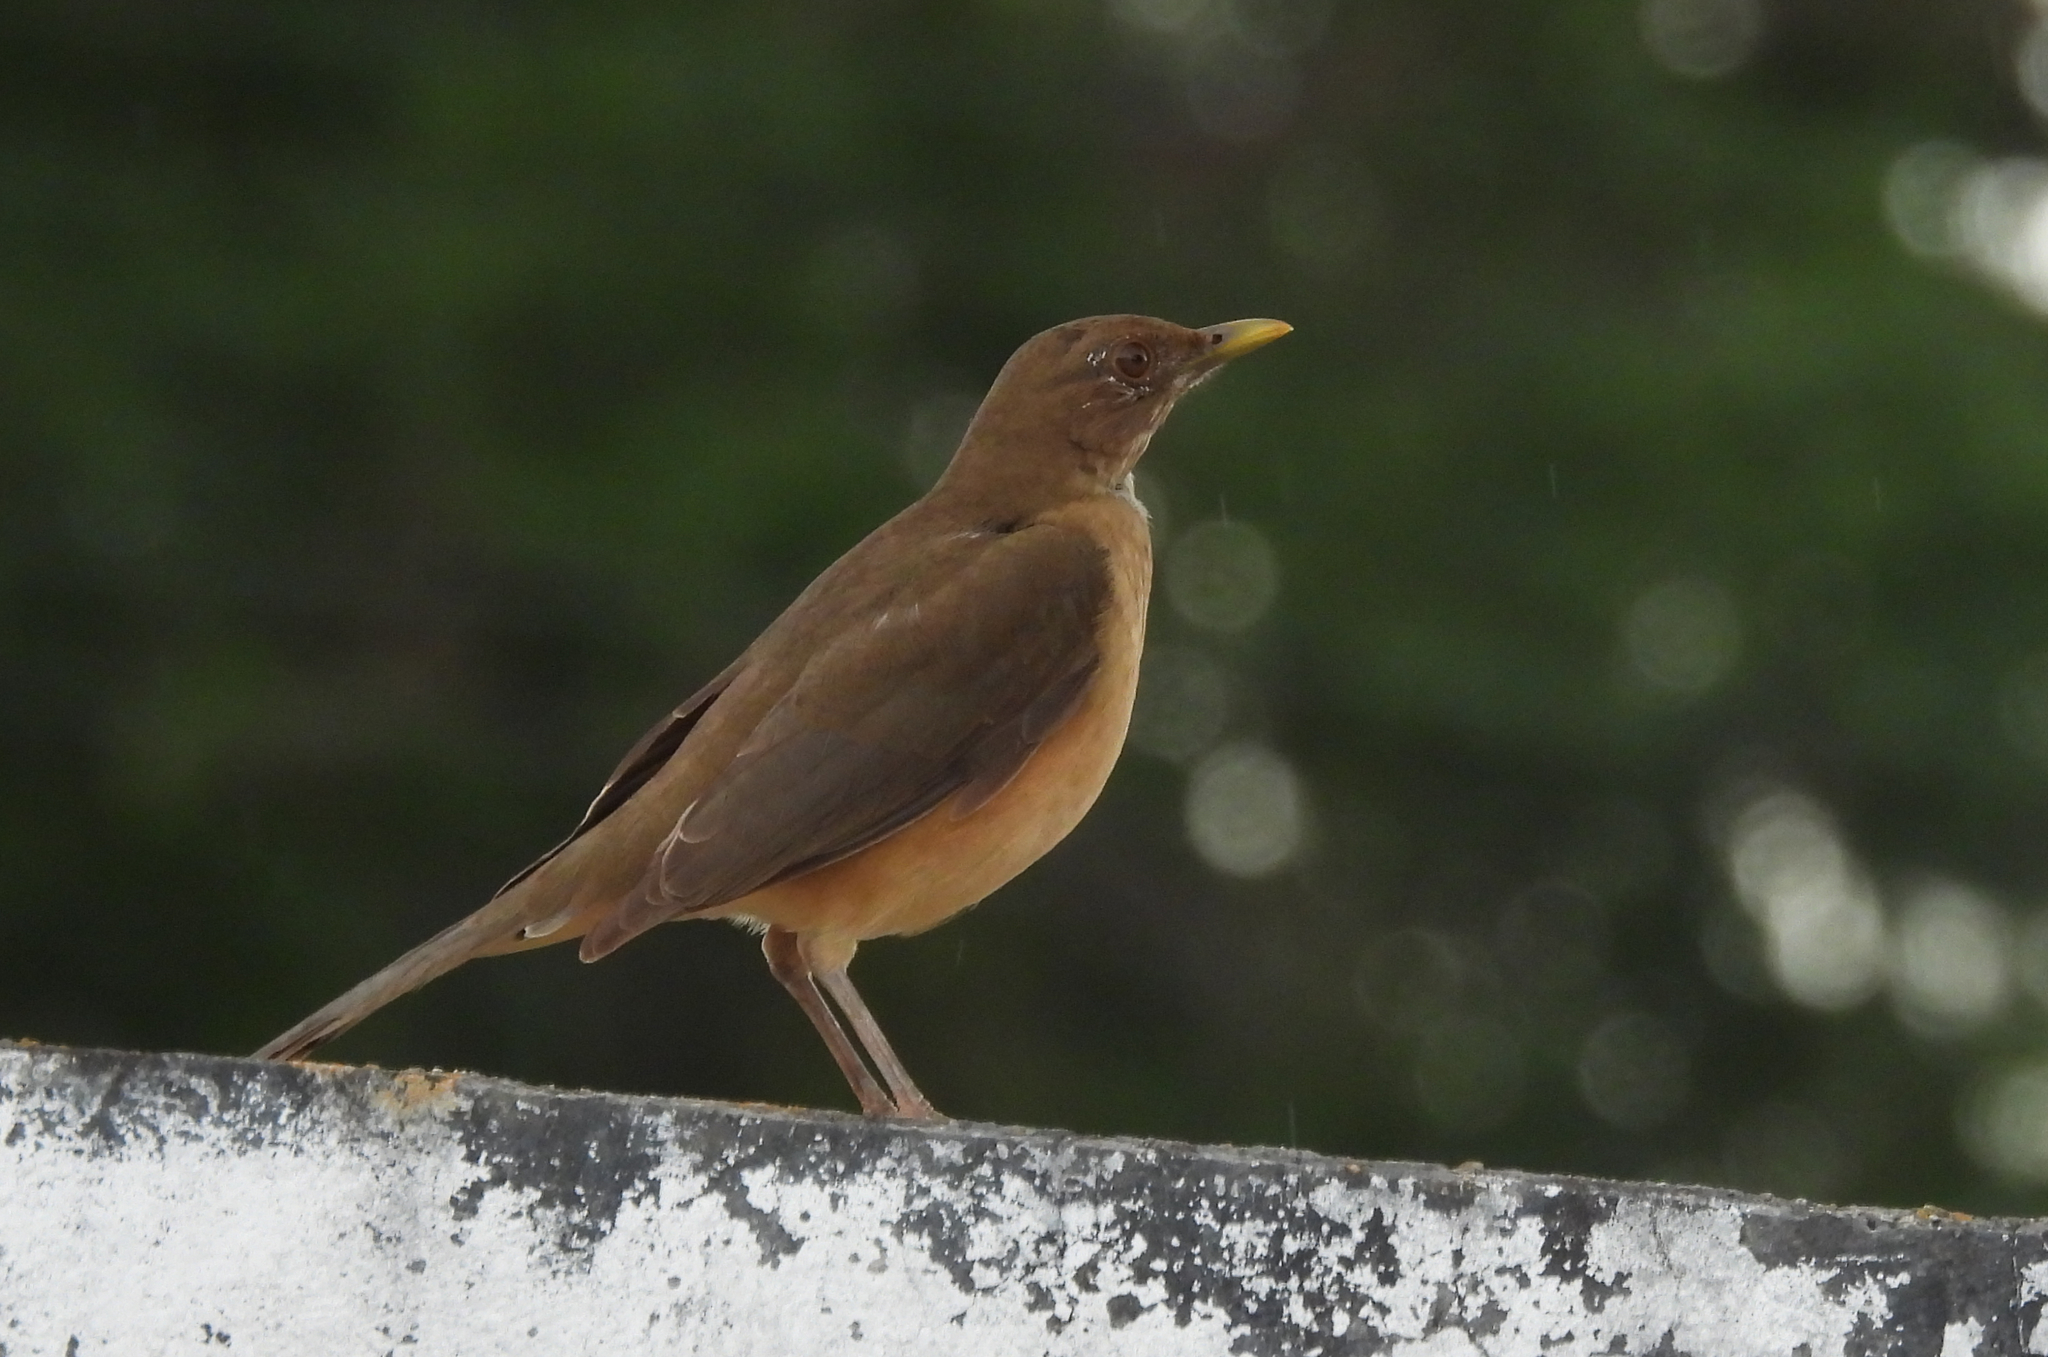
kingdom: Animalia
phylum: Chordata
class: Aves
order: Passeriformes
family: Turdidae
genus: Turdus
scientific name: Turdus grayi
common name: Clay-colored thrush
